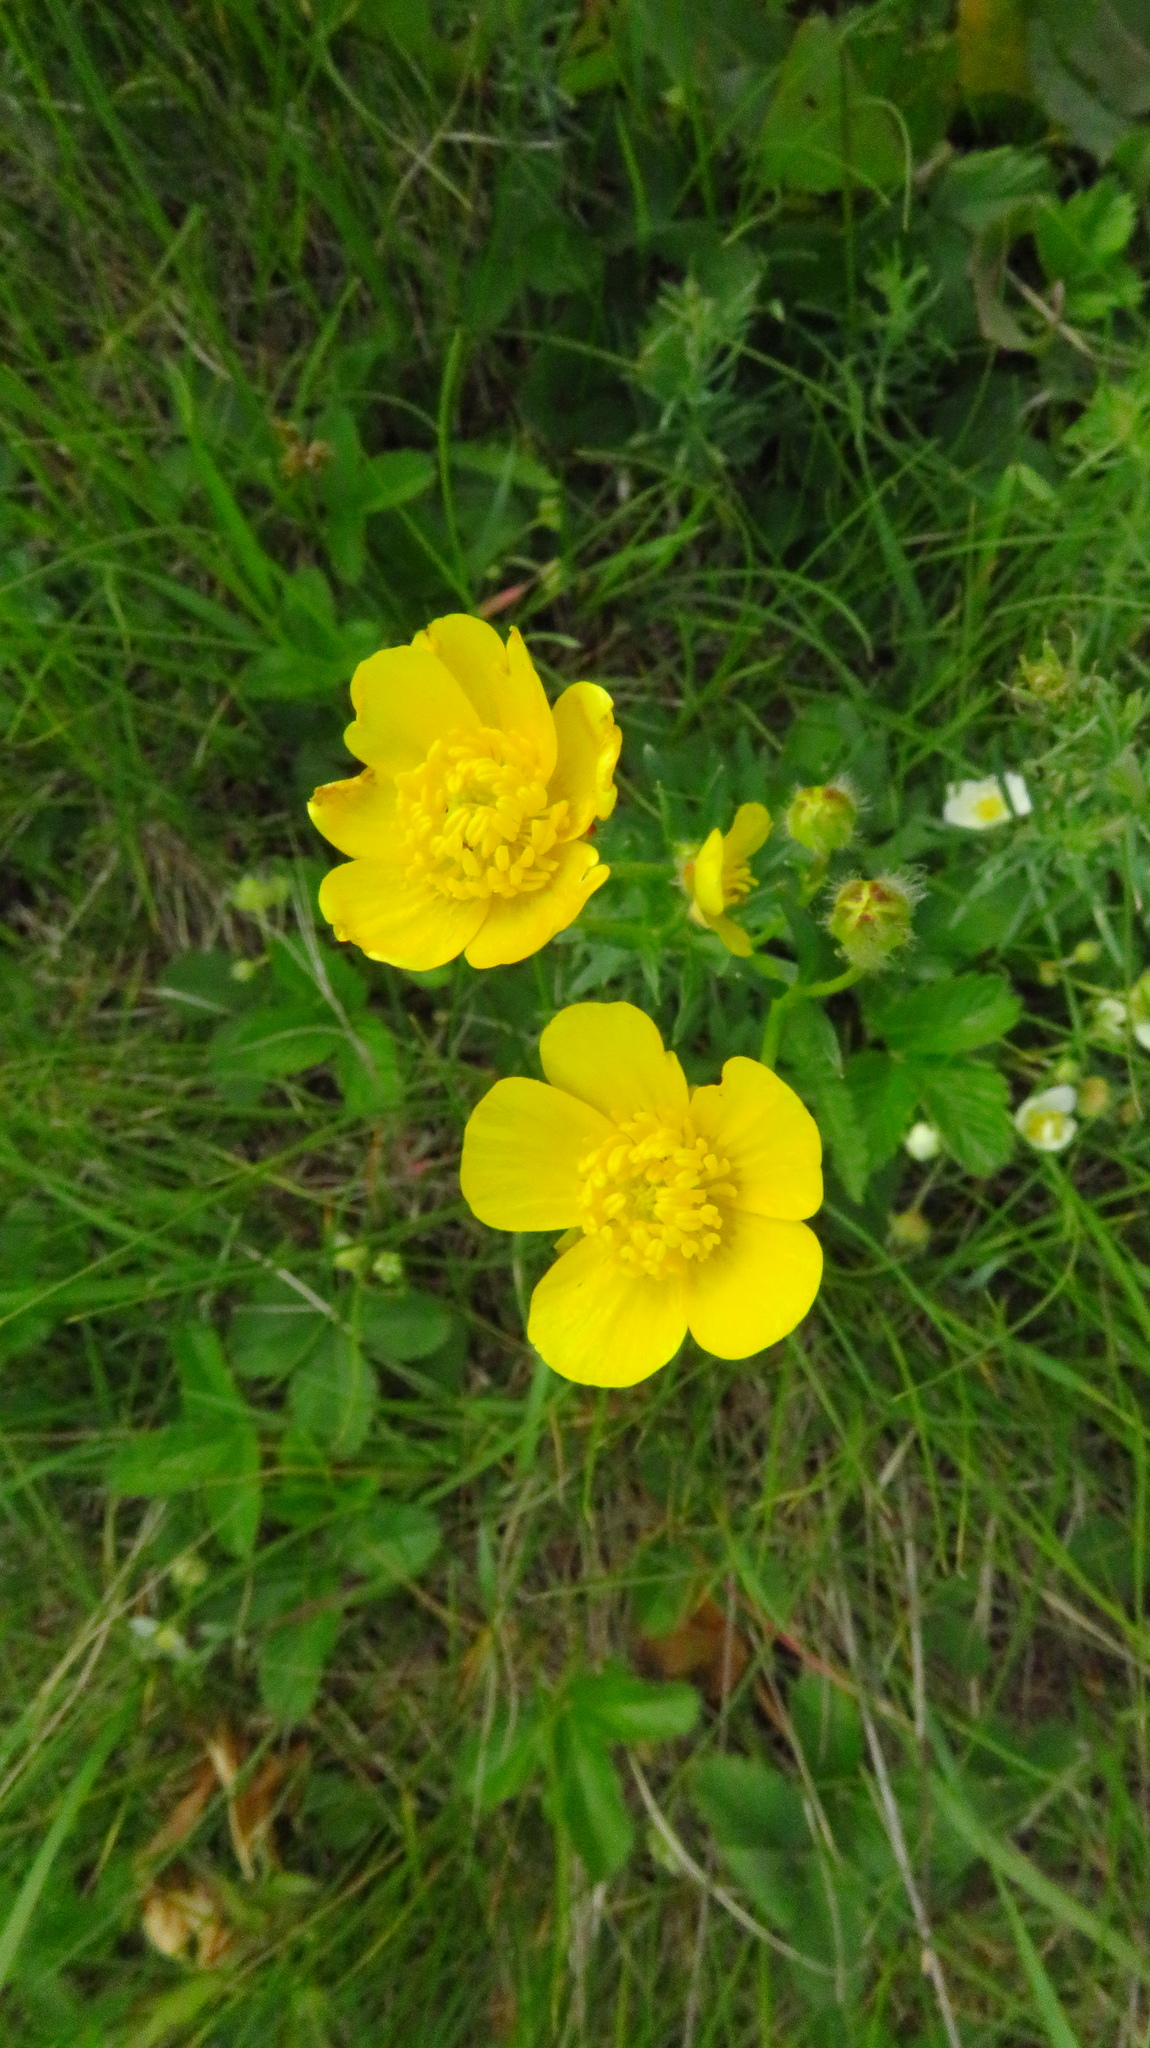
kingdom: Plantae
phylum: Tracheophyta
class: Magnoliopsida
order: Ranunculales
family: Ranunculaceae
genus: Ranunculus
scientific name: Ranunculus polyanthemos
